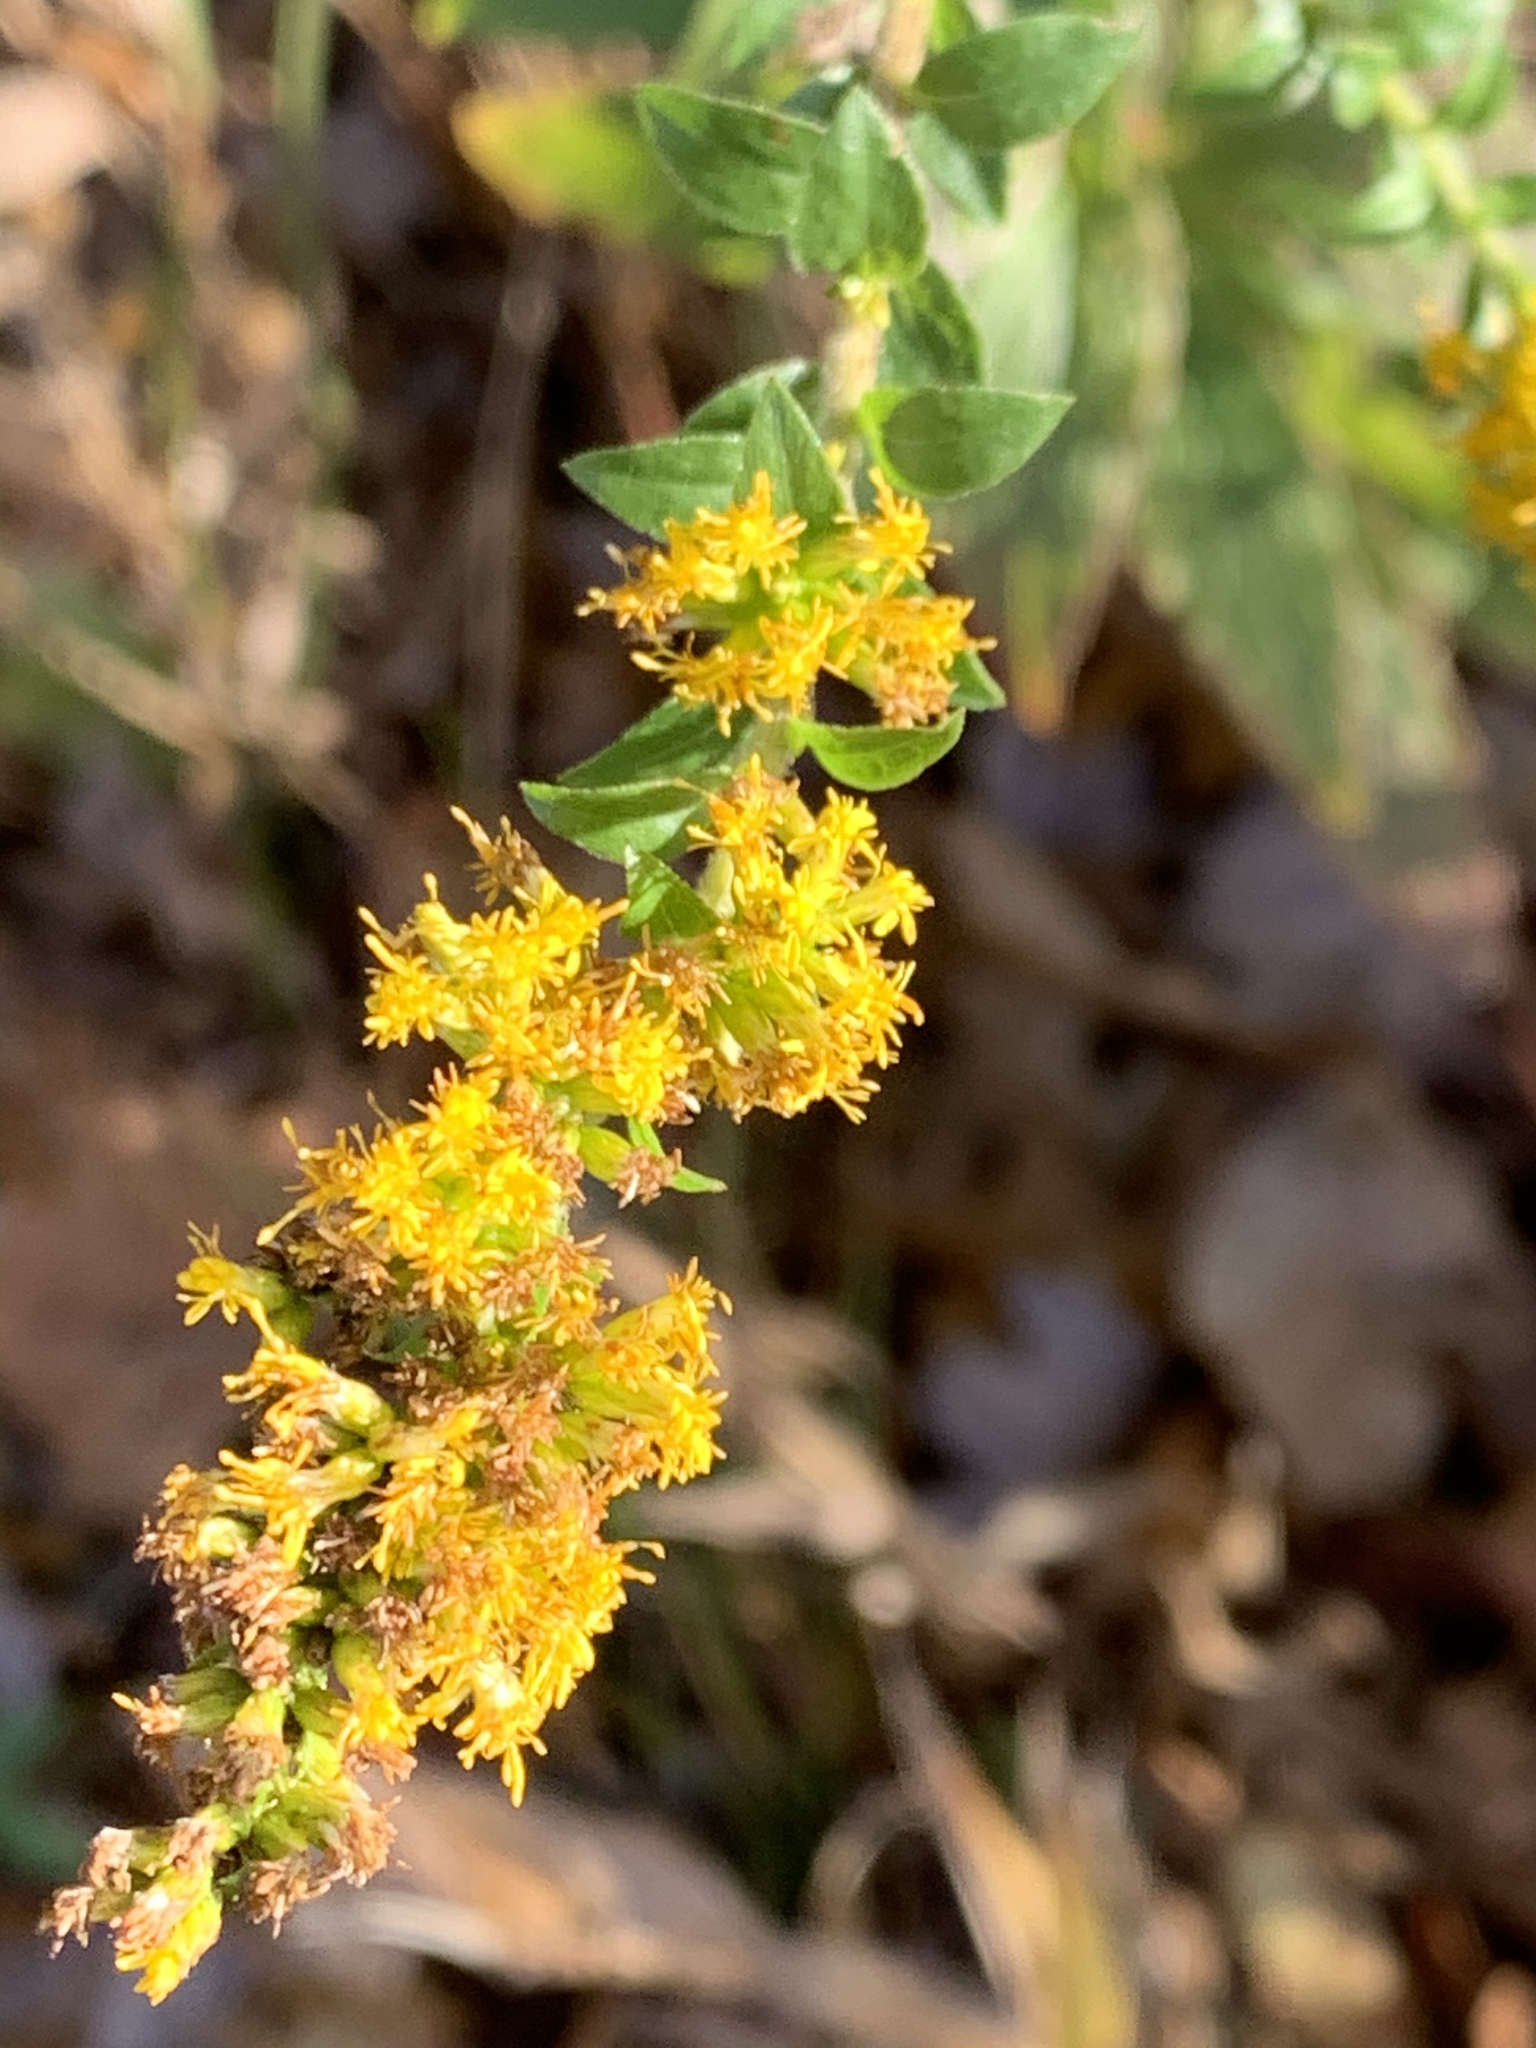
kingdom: Plantae
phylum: Tracheophyta
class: Magnoliopsida
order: Asterales
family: Asteraceae
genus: Solidago
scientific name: Solidago rugosa
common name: Rough-stemmed goldenrod
